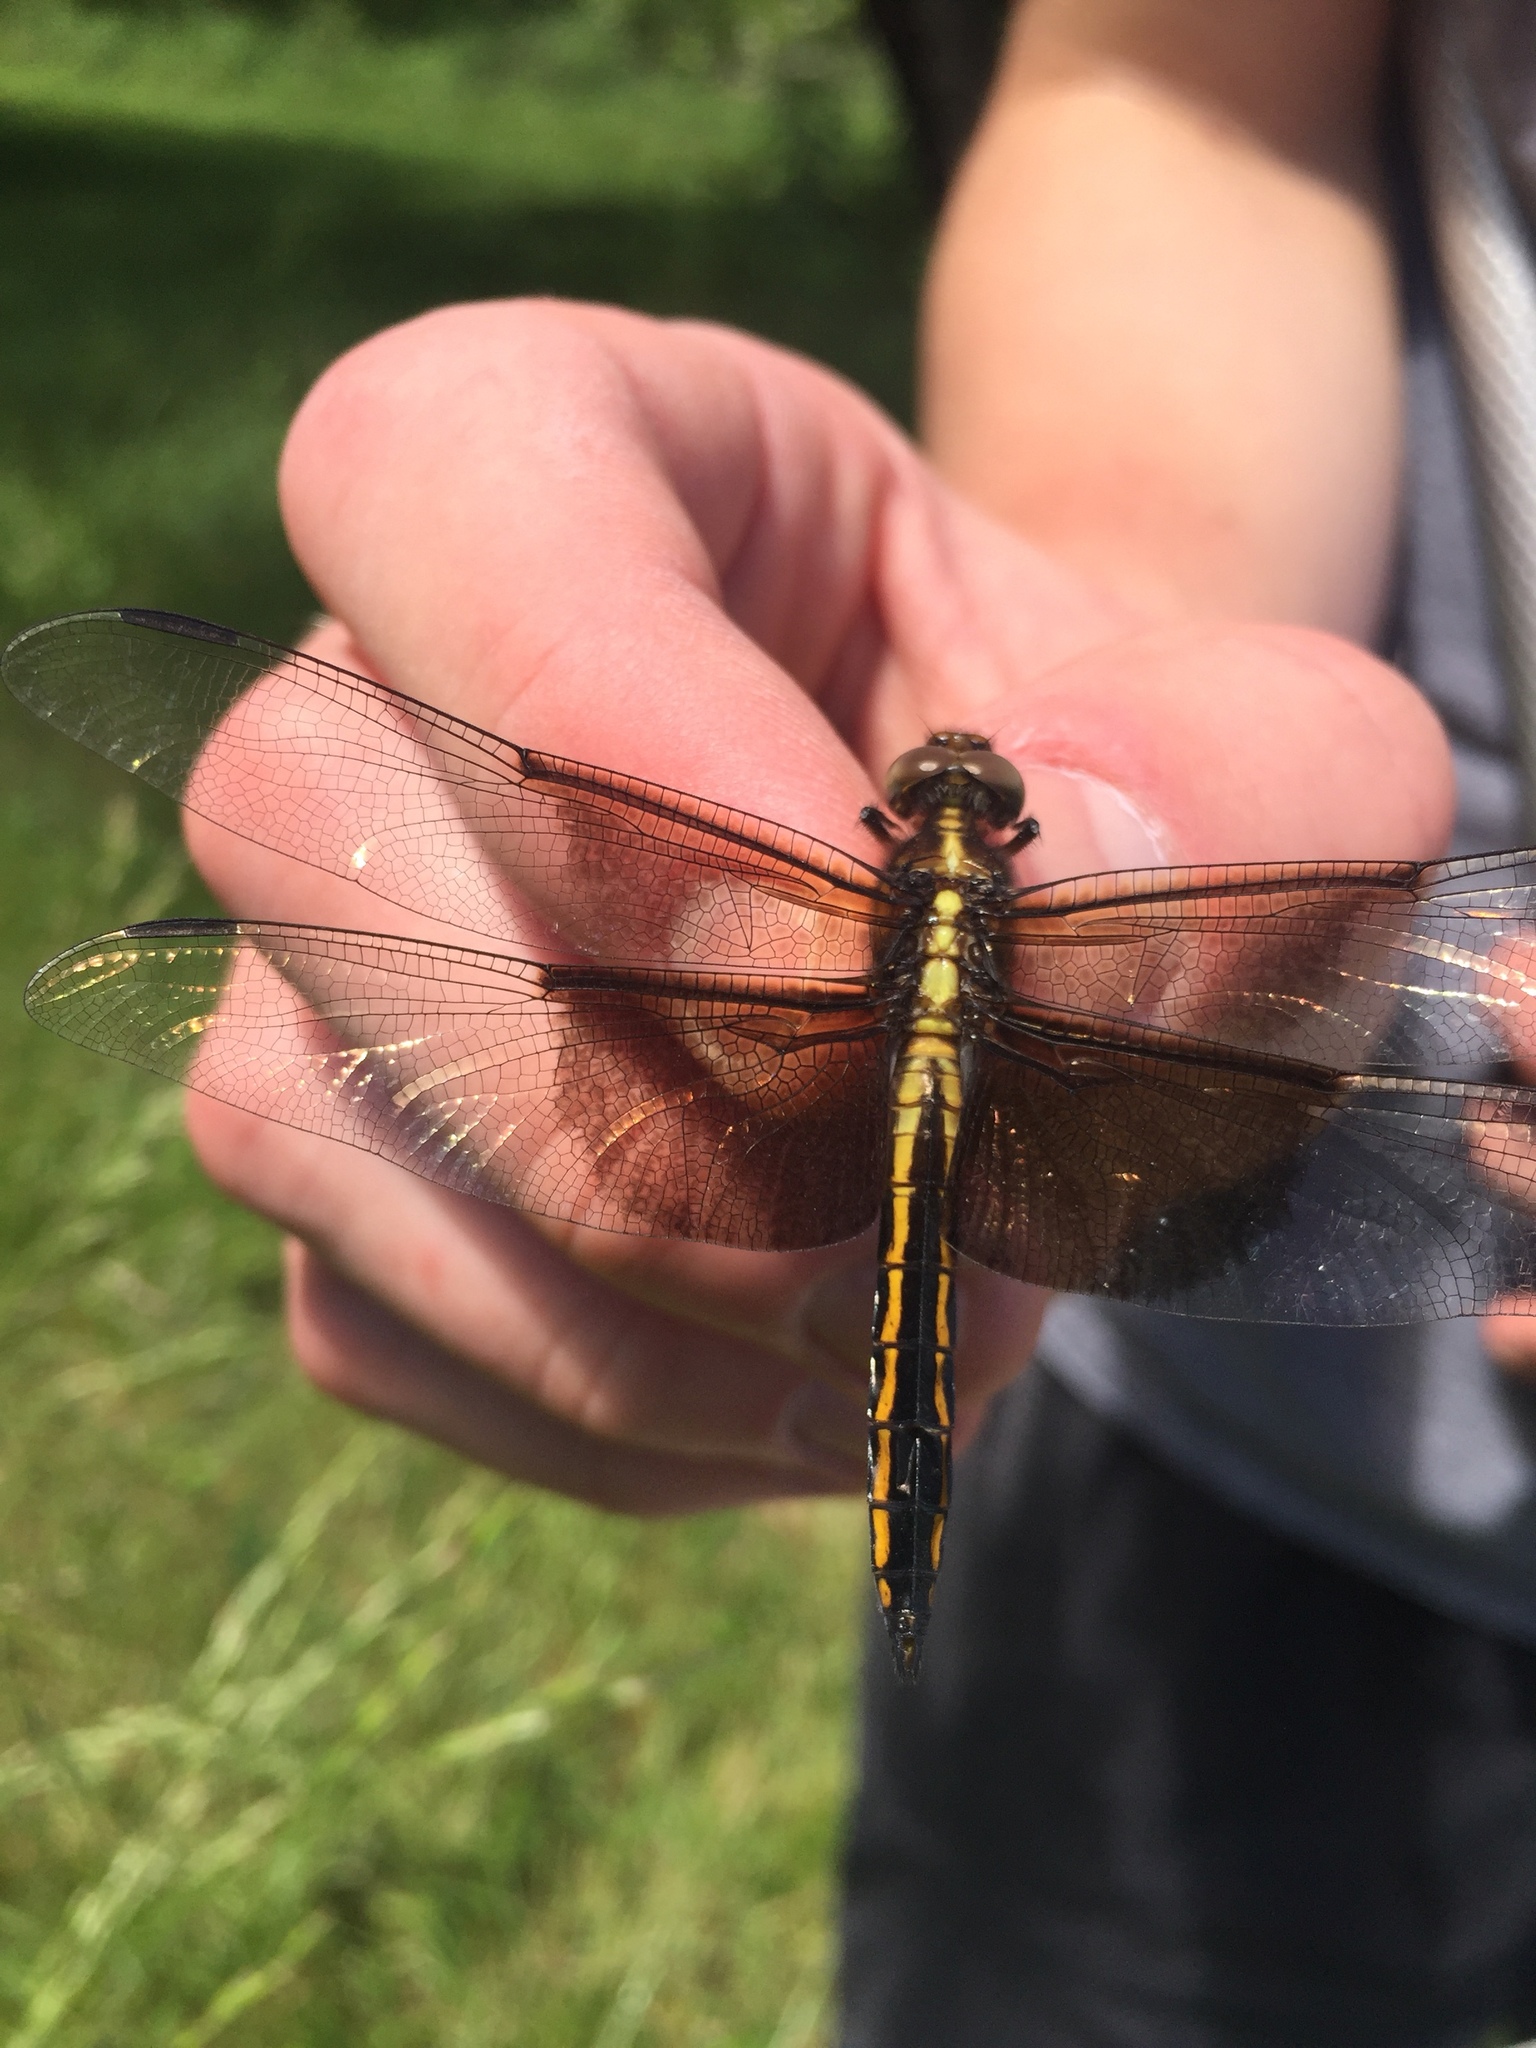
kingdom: Animalia
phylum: Arthropoda
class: Insecta
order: Odonata
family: Libellulidae
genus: Libellula
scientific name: Libellula luctuosa
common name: Widow skimmer
